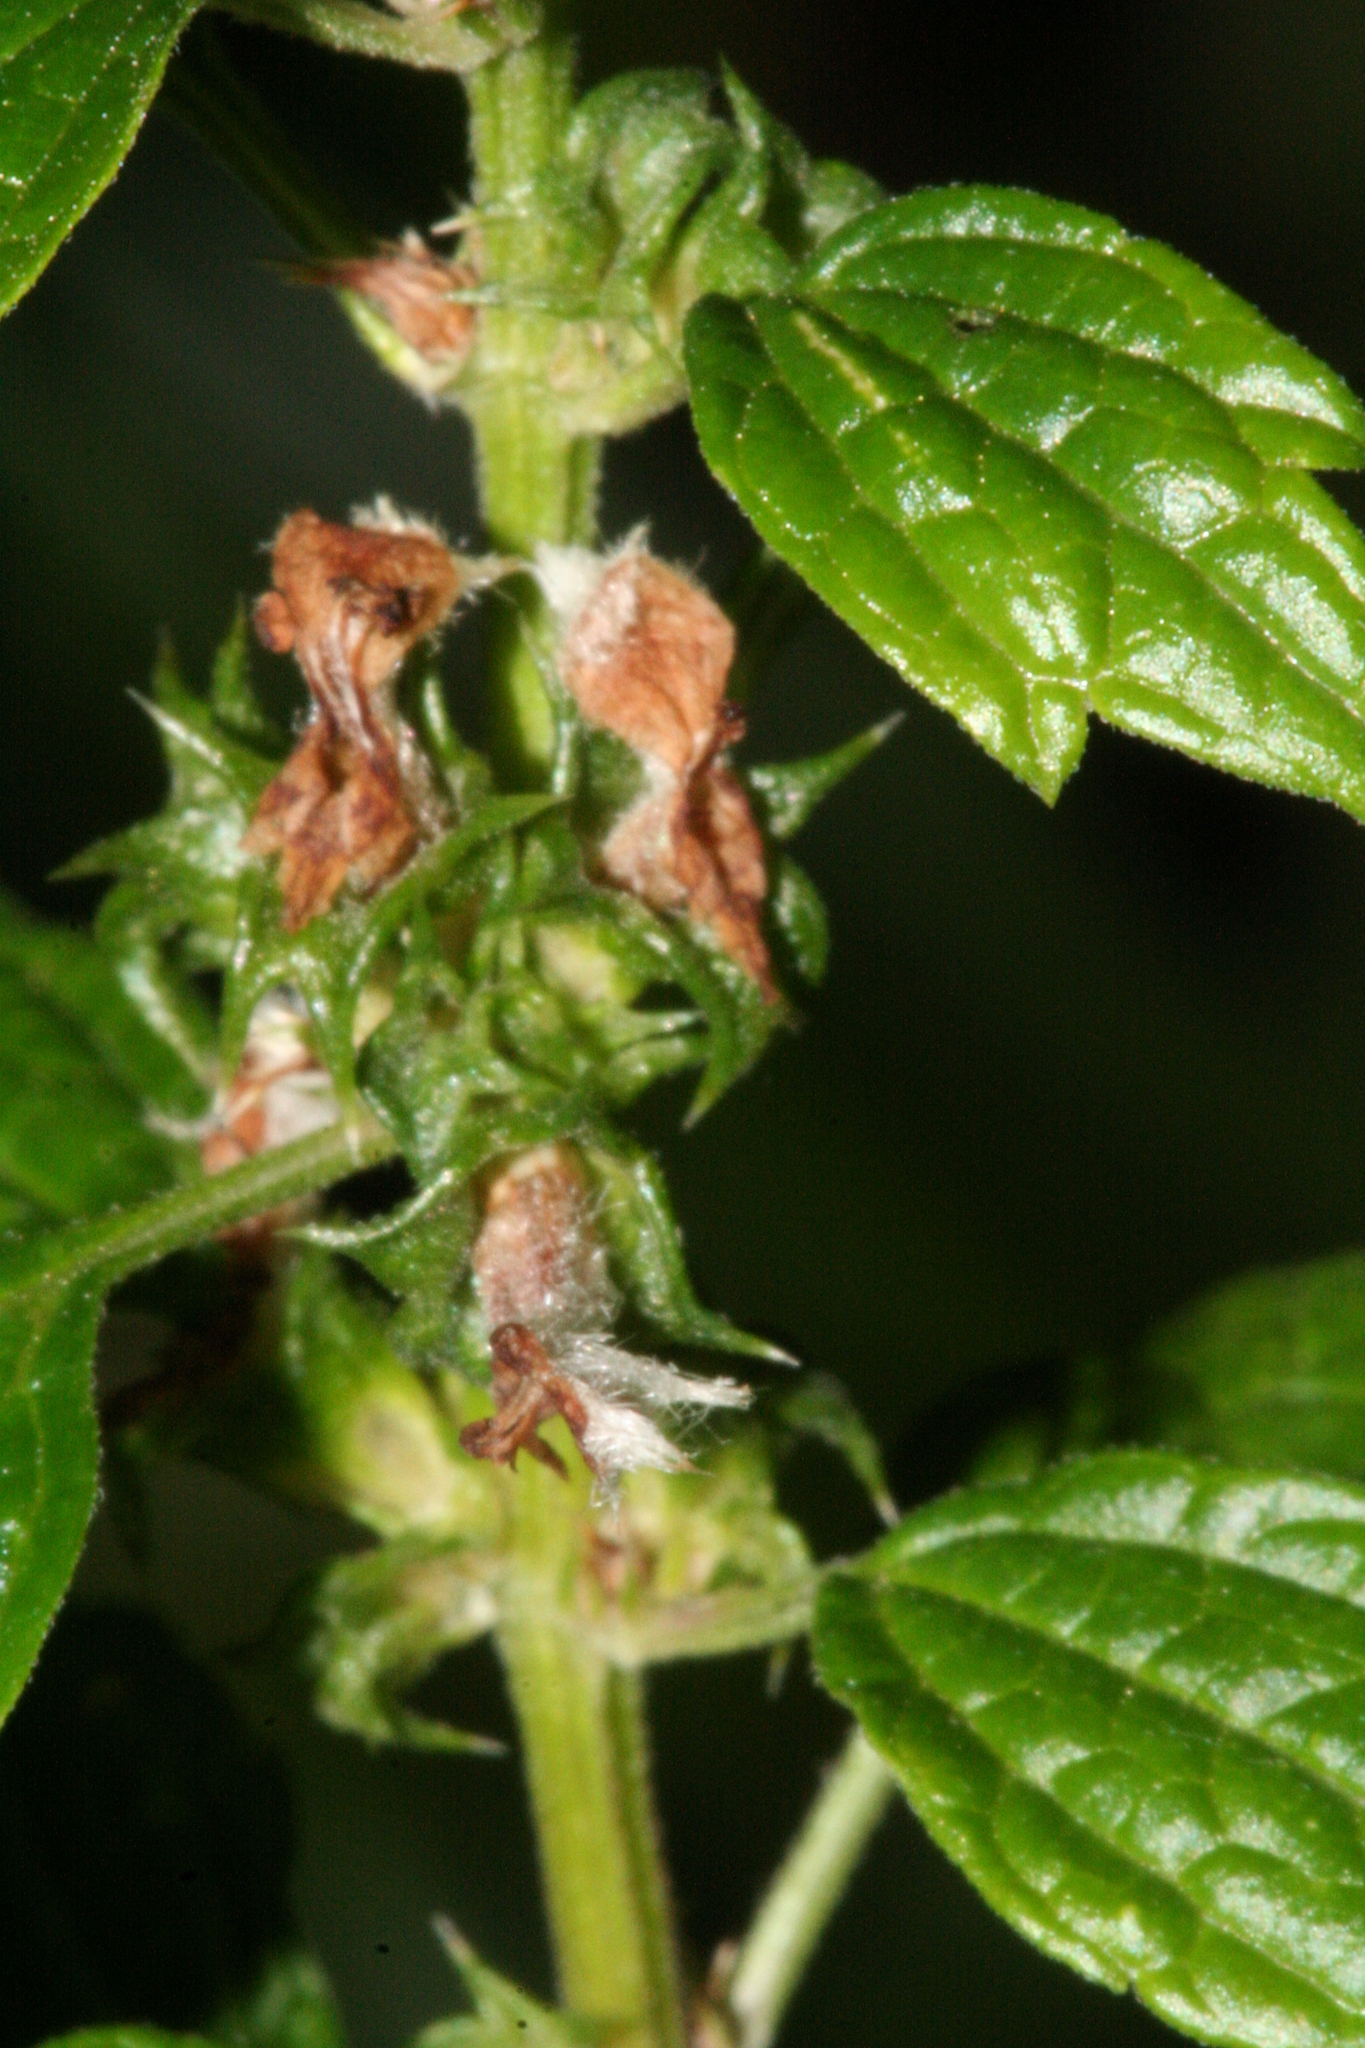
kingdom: Plantae
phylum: Tracheophyta
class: Magnoliopsida
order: Lamiales
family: Lamiaceae
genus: Leonurus
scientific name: Leonurus cardiaca
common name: Motherwort
